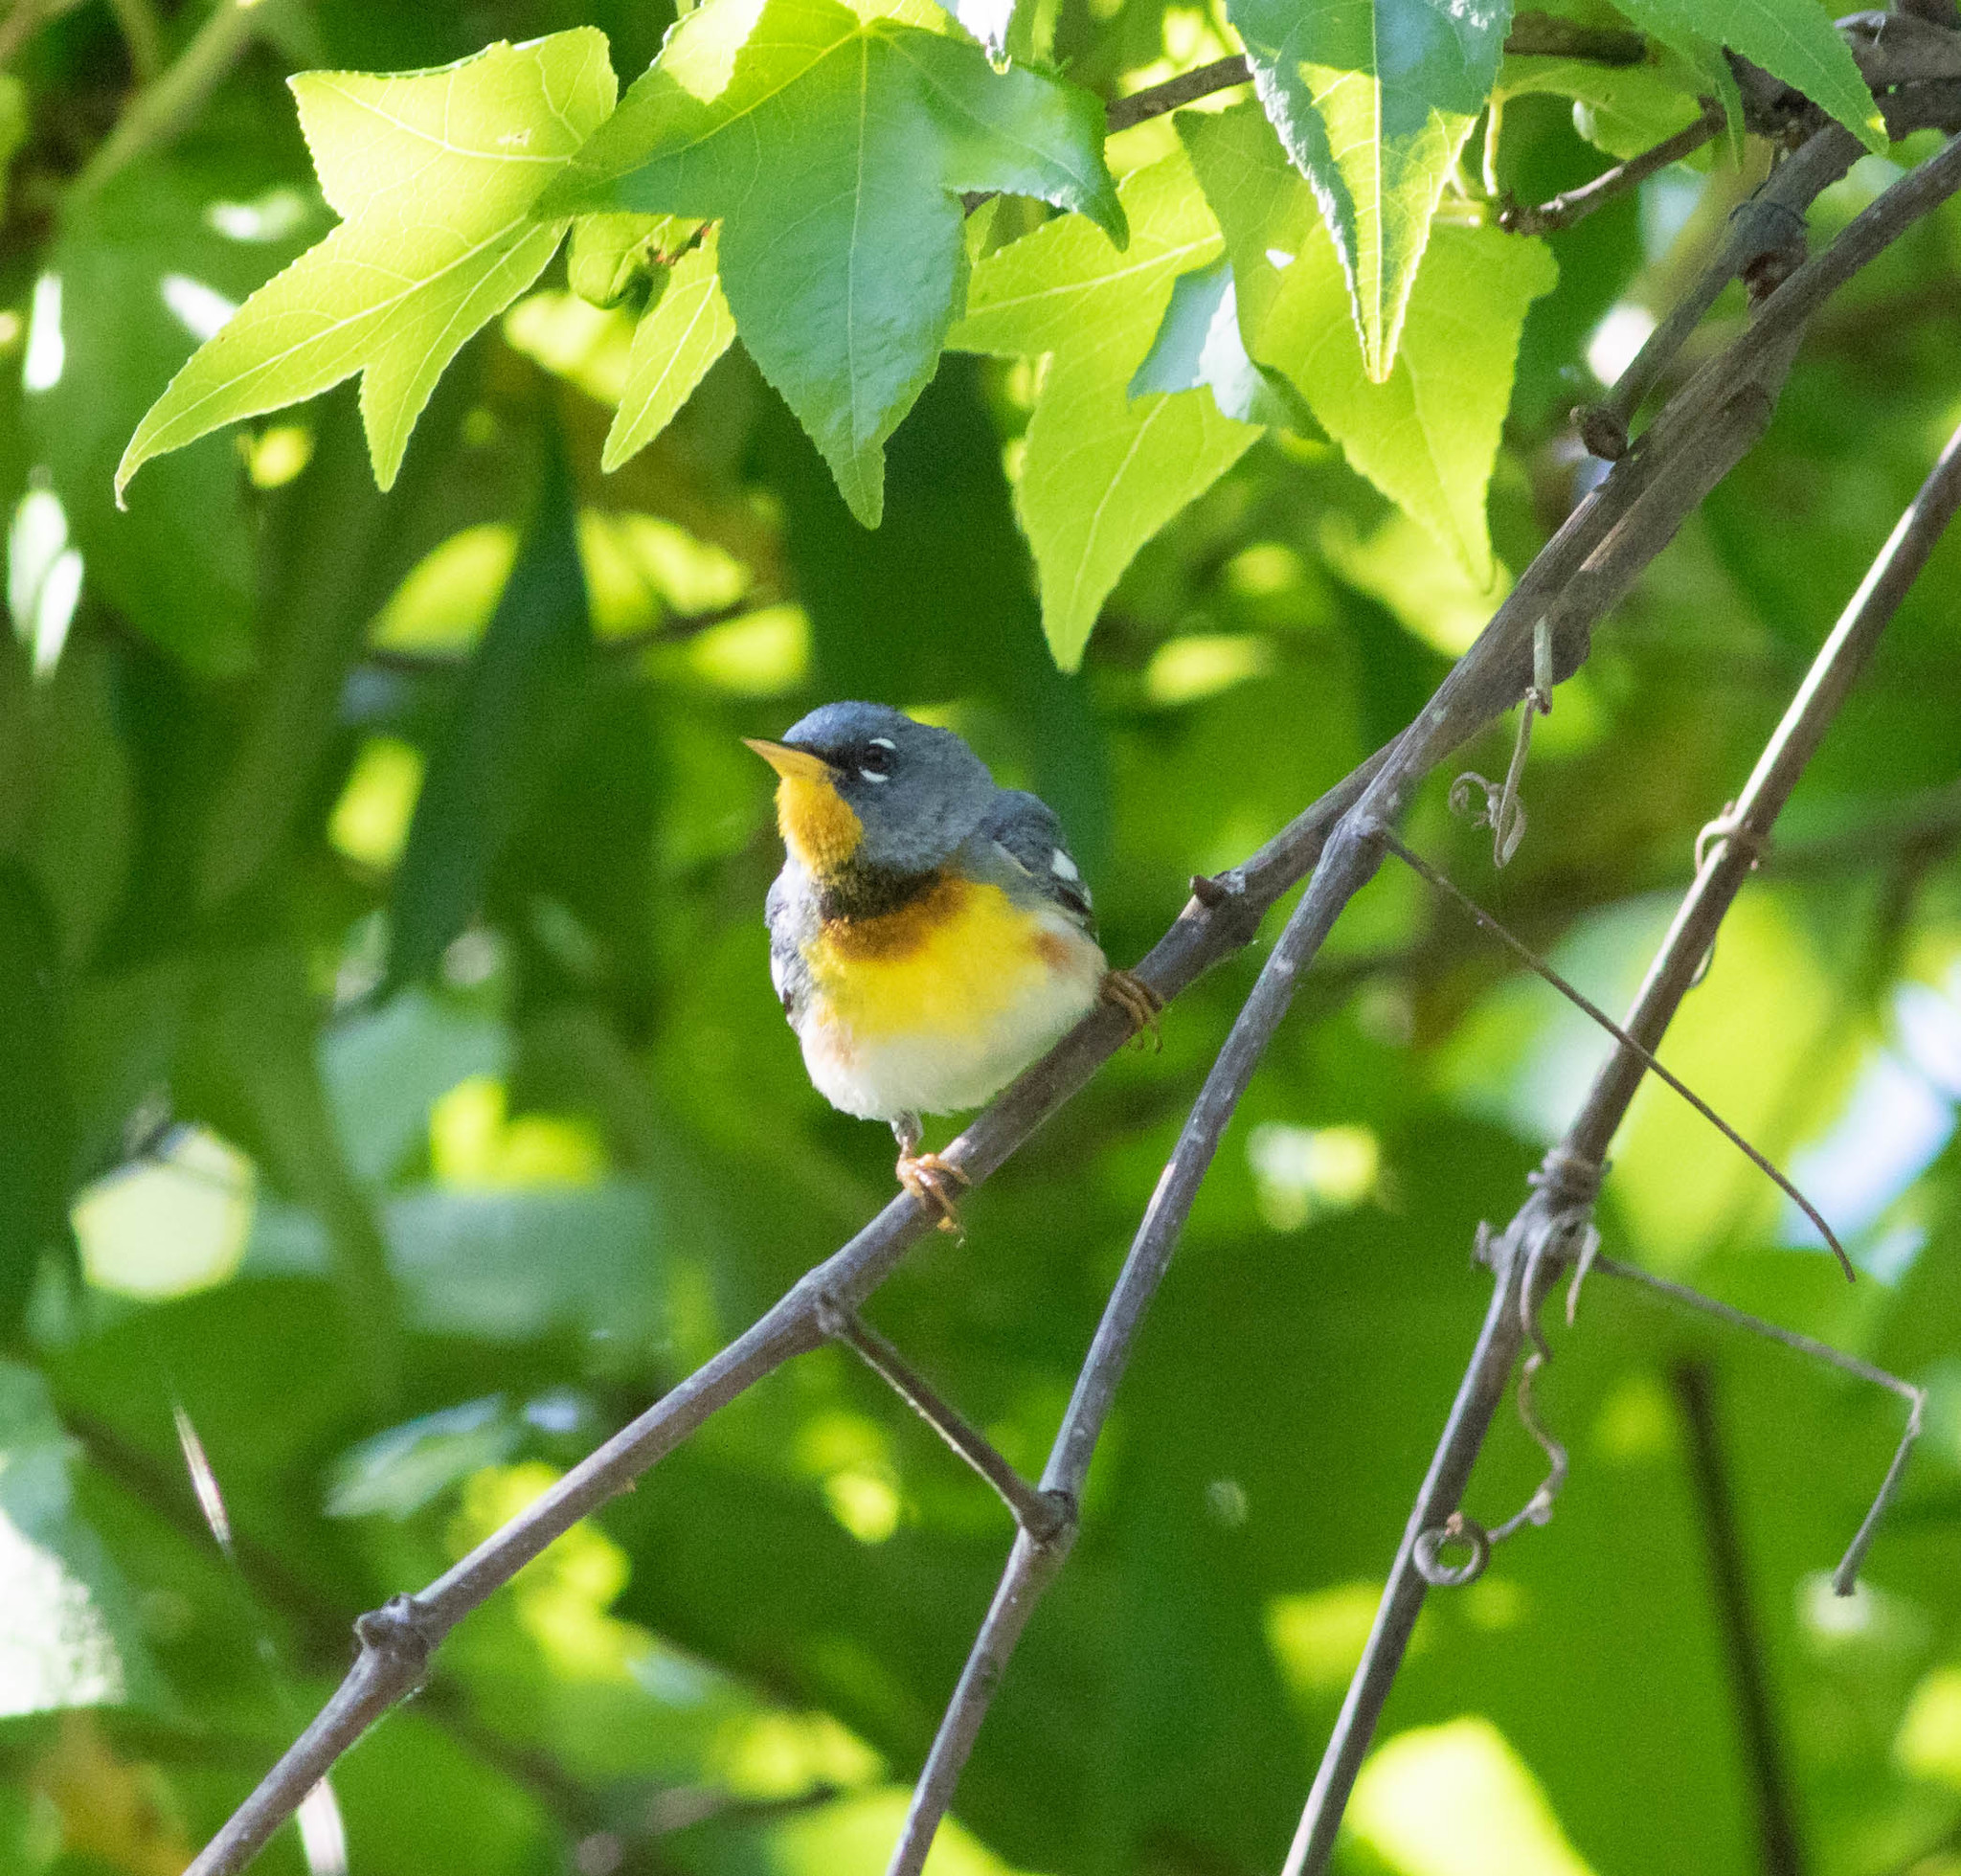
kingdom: Animalia
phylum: Chordata
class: Aves
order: Passeriformes
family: Parulidae
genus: Setophaga
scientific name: Setophaga americana
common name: Northern parula
